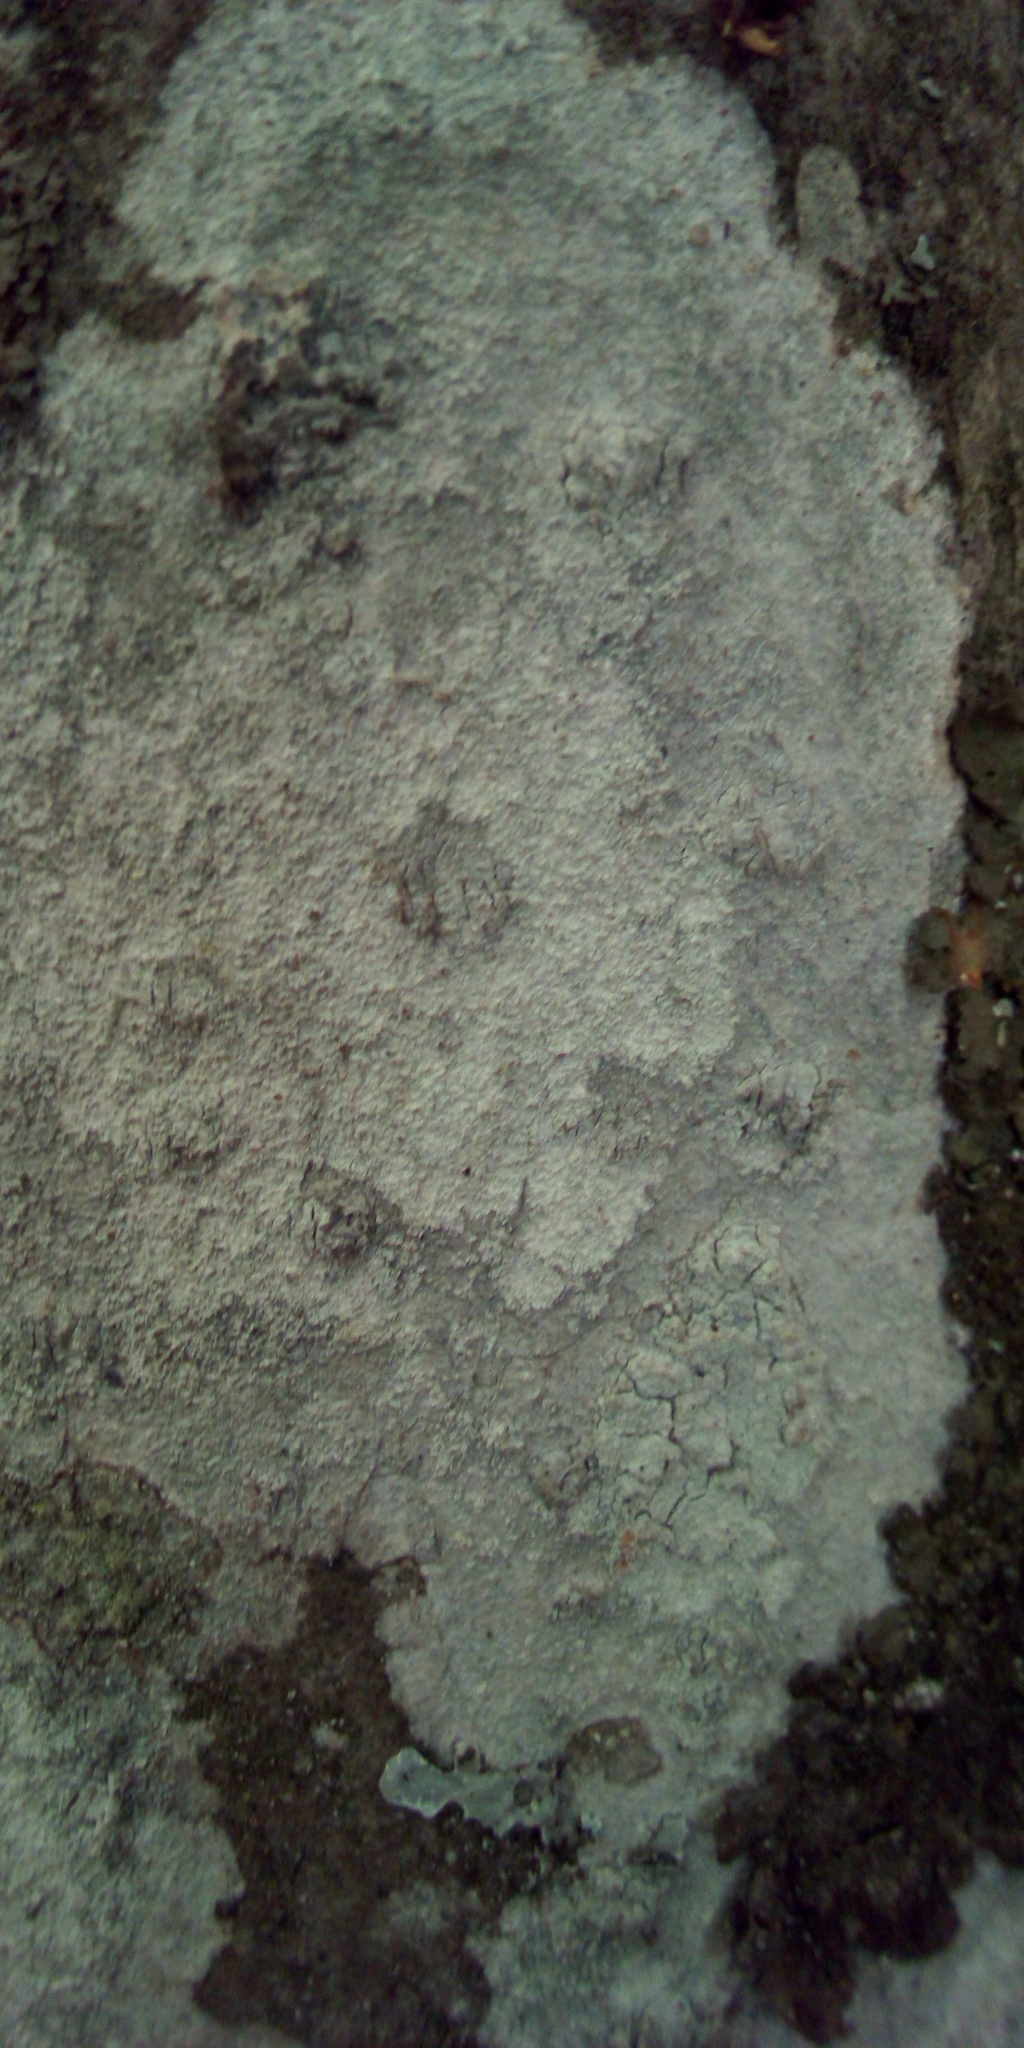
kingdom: Fungi
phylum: Ascomycota
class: Lecanoromycetes
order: Ostropales
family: Phlyctidaceae
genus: Phlyctis
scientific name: Phlyctis argena
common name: Whitewash lichen
